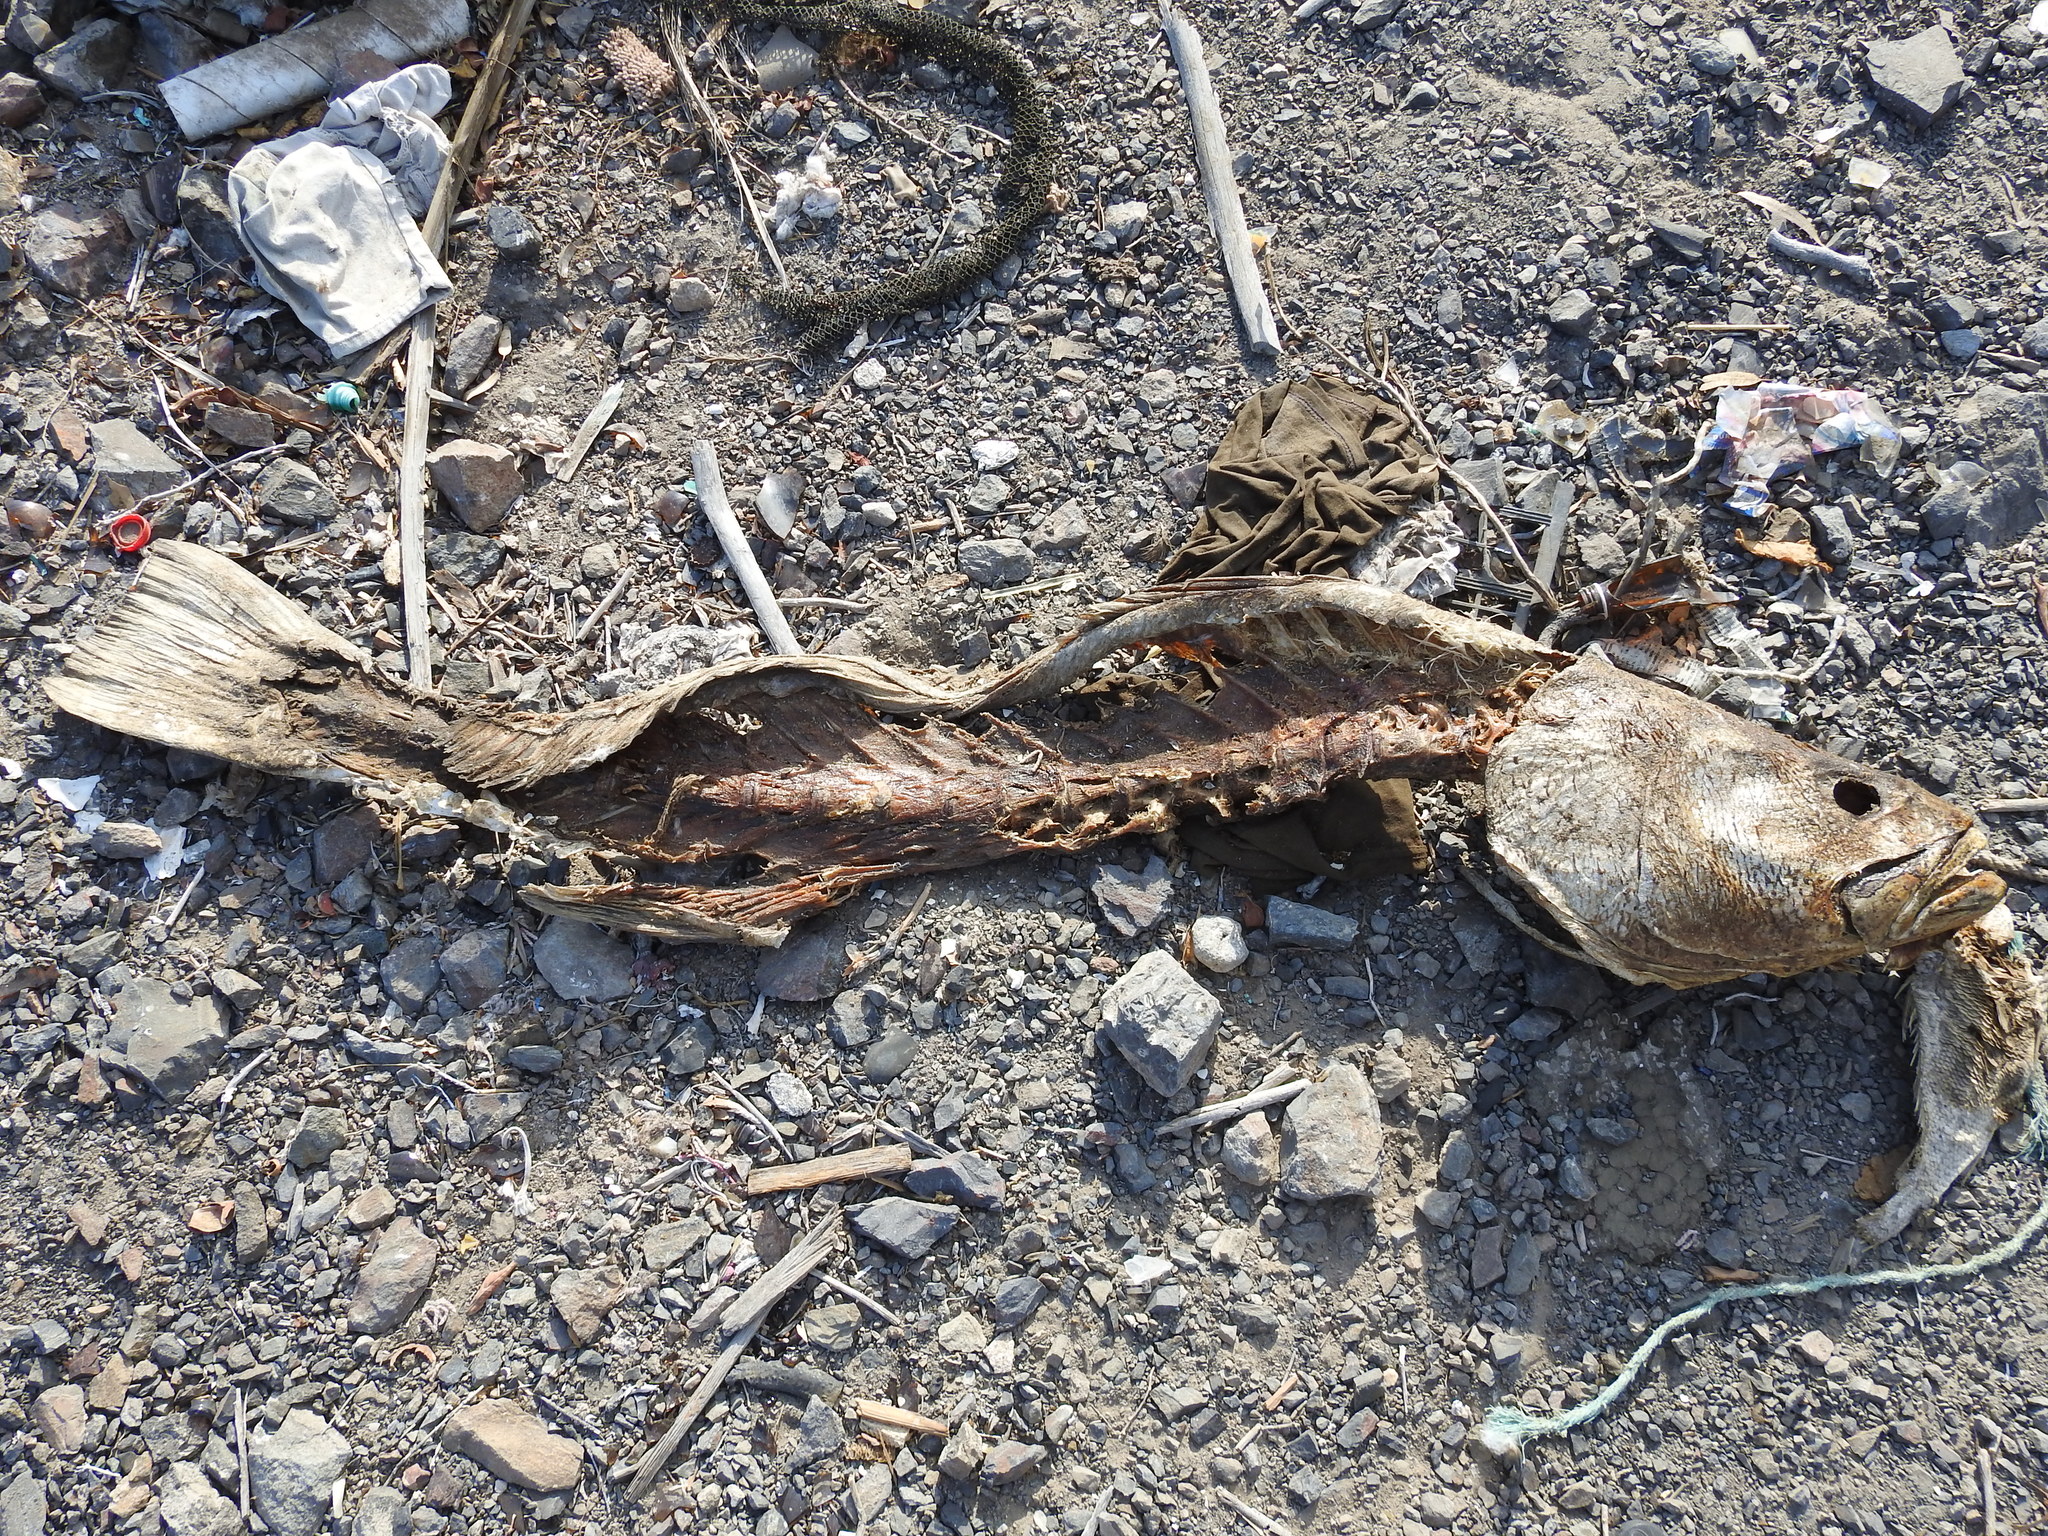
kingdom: Animalia
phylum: Chordata
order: Perciformes
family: Sciaenidae
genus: Totoaba
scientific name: Totoaba macdonaldi
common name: Totoaba
